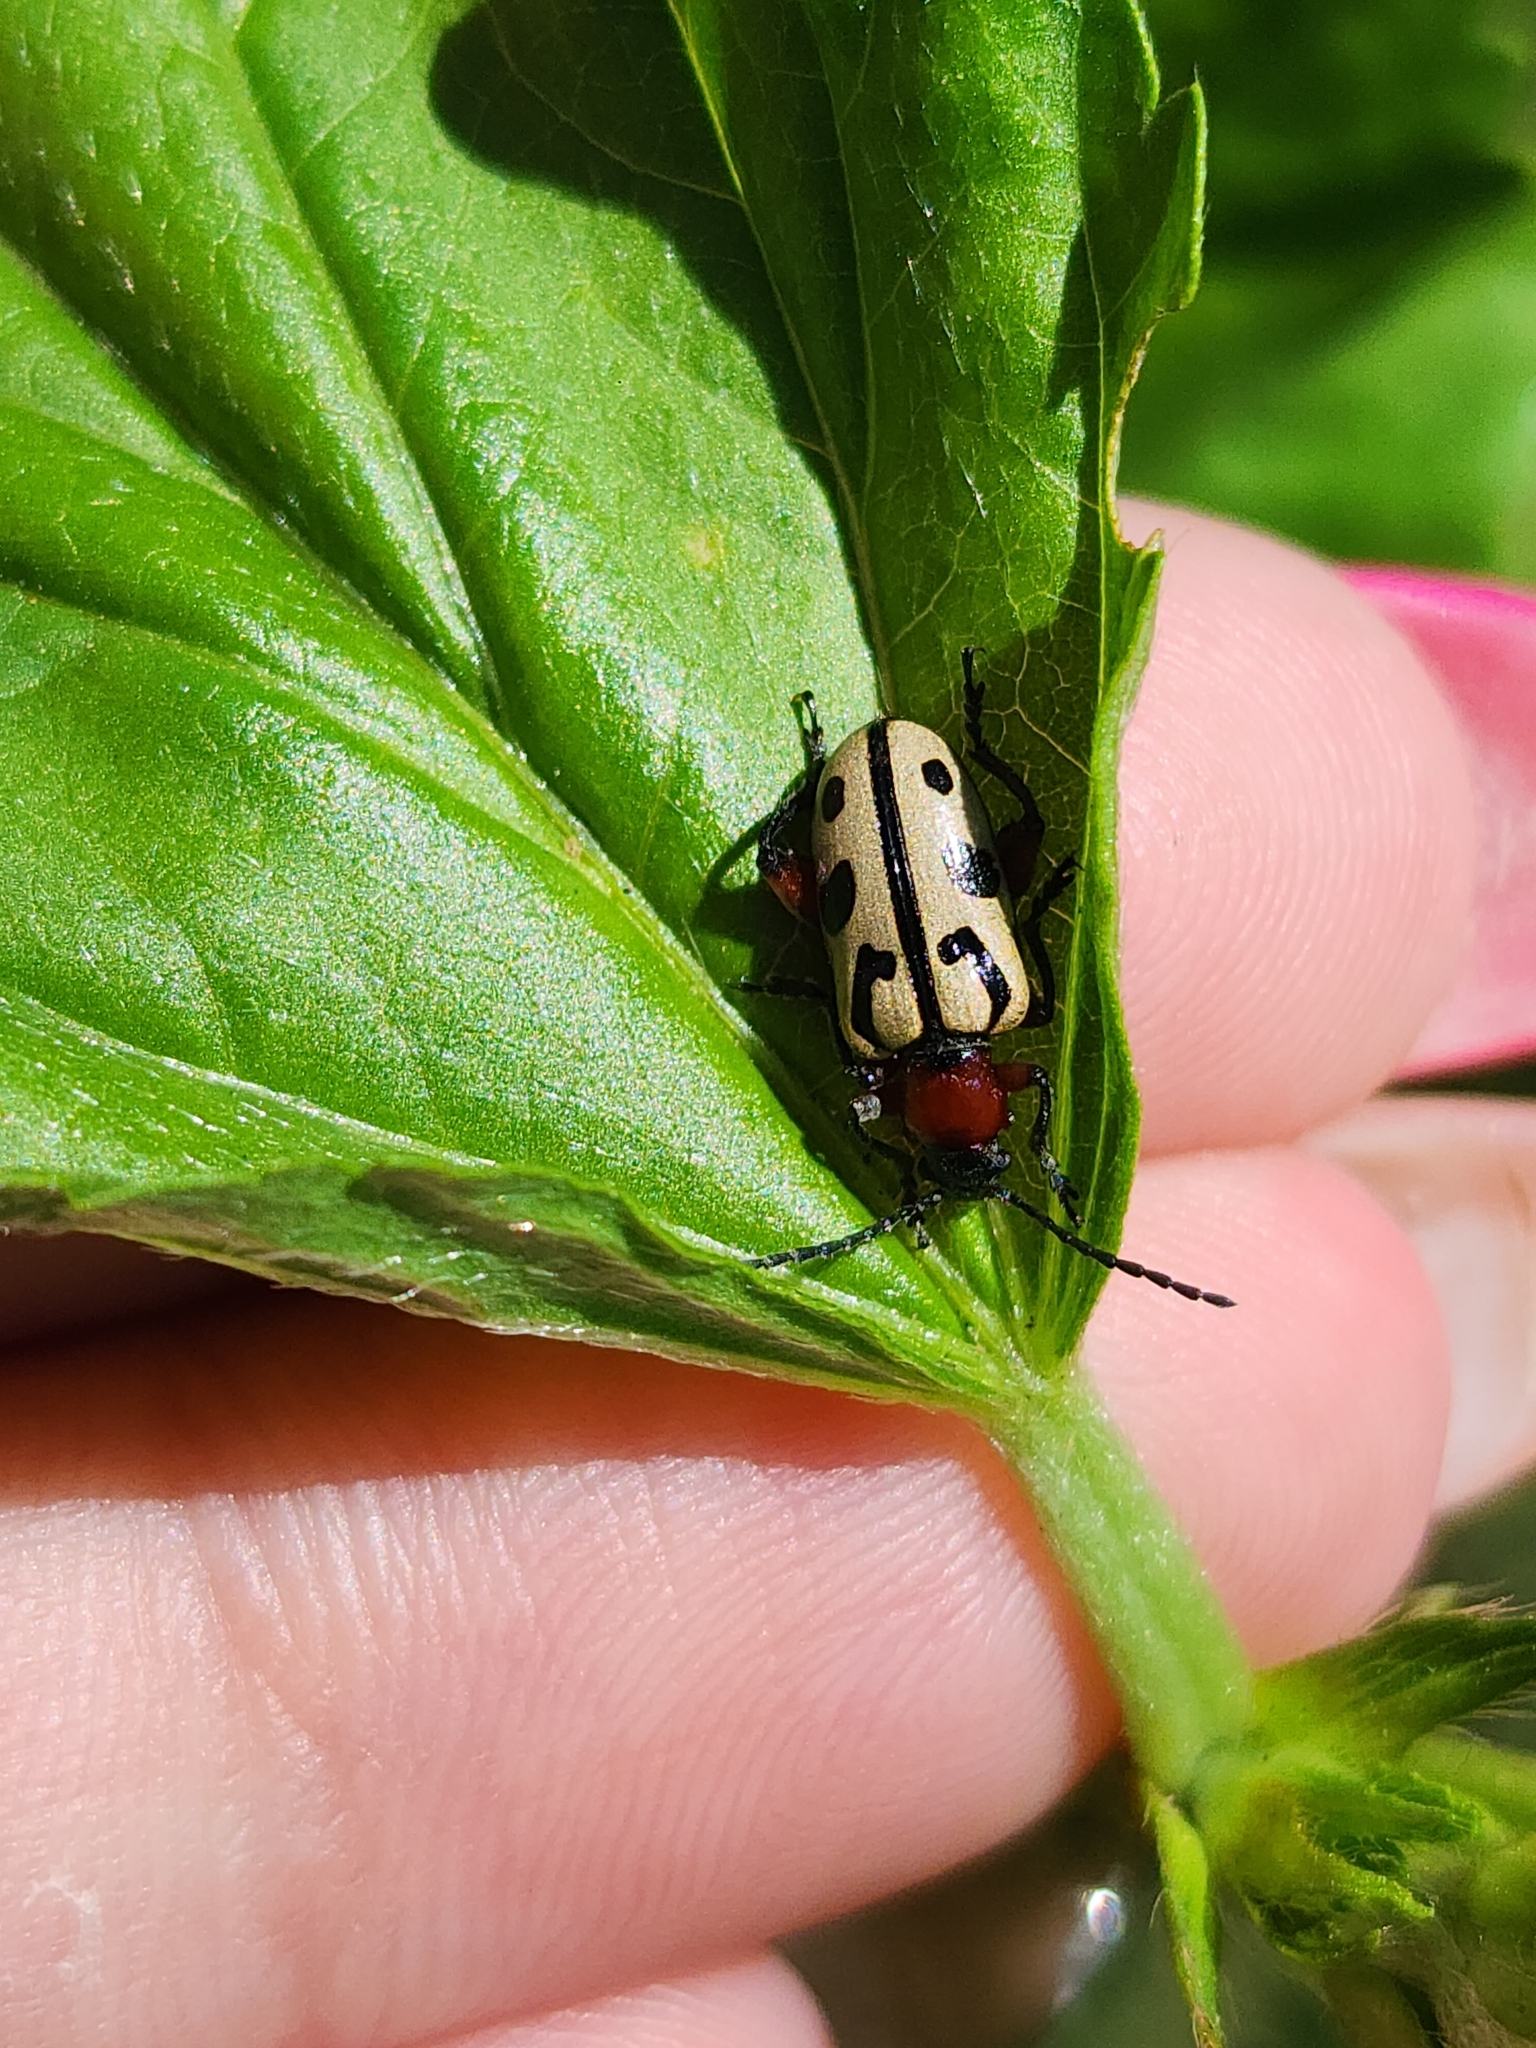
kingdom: Animalia
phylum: Arthropoda
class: Insecta
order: Coleoptera
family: Chrysomelidae
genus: Atalasis
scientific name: Atalasis
